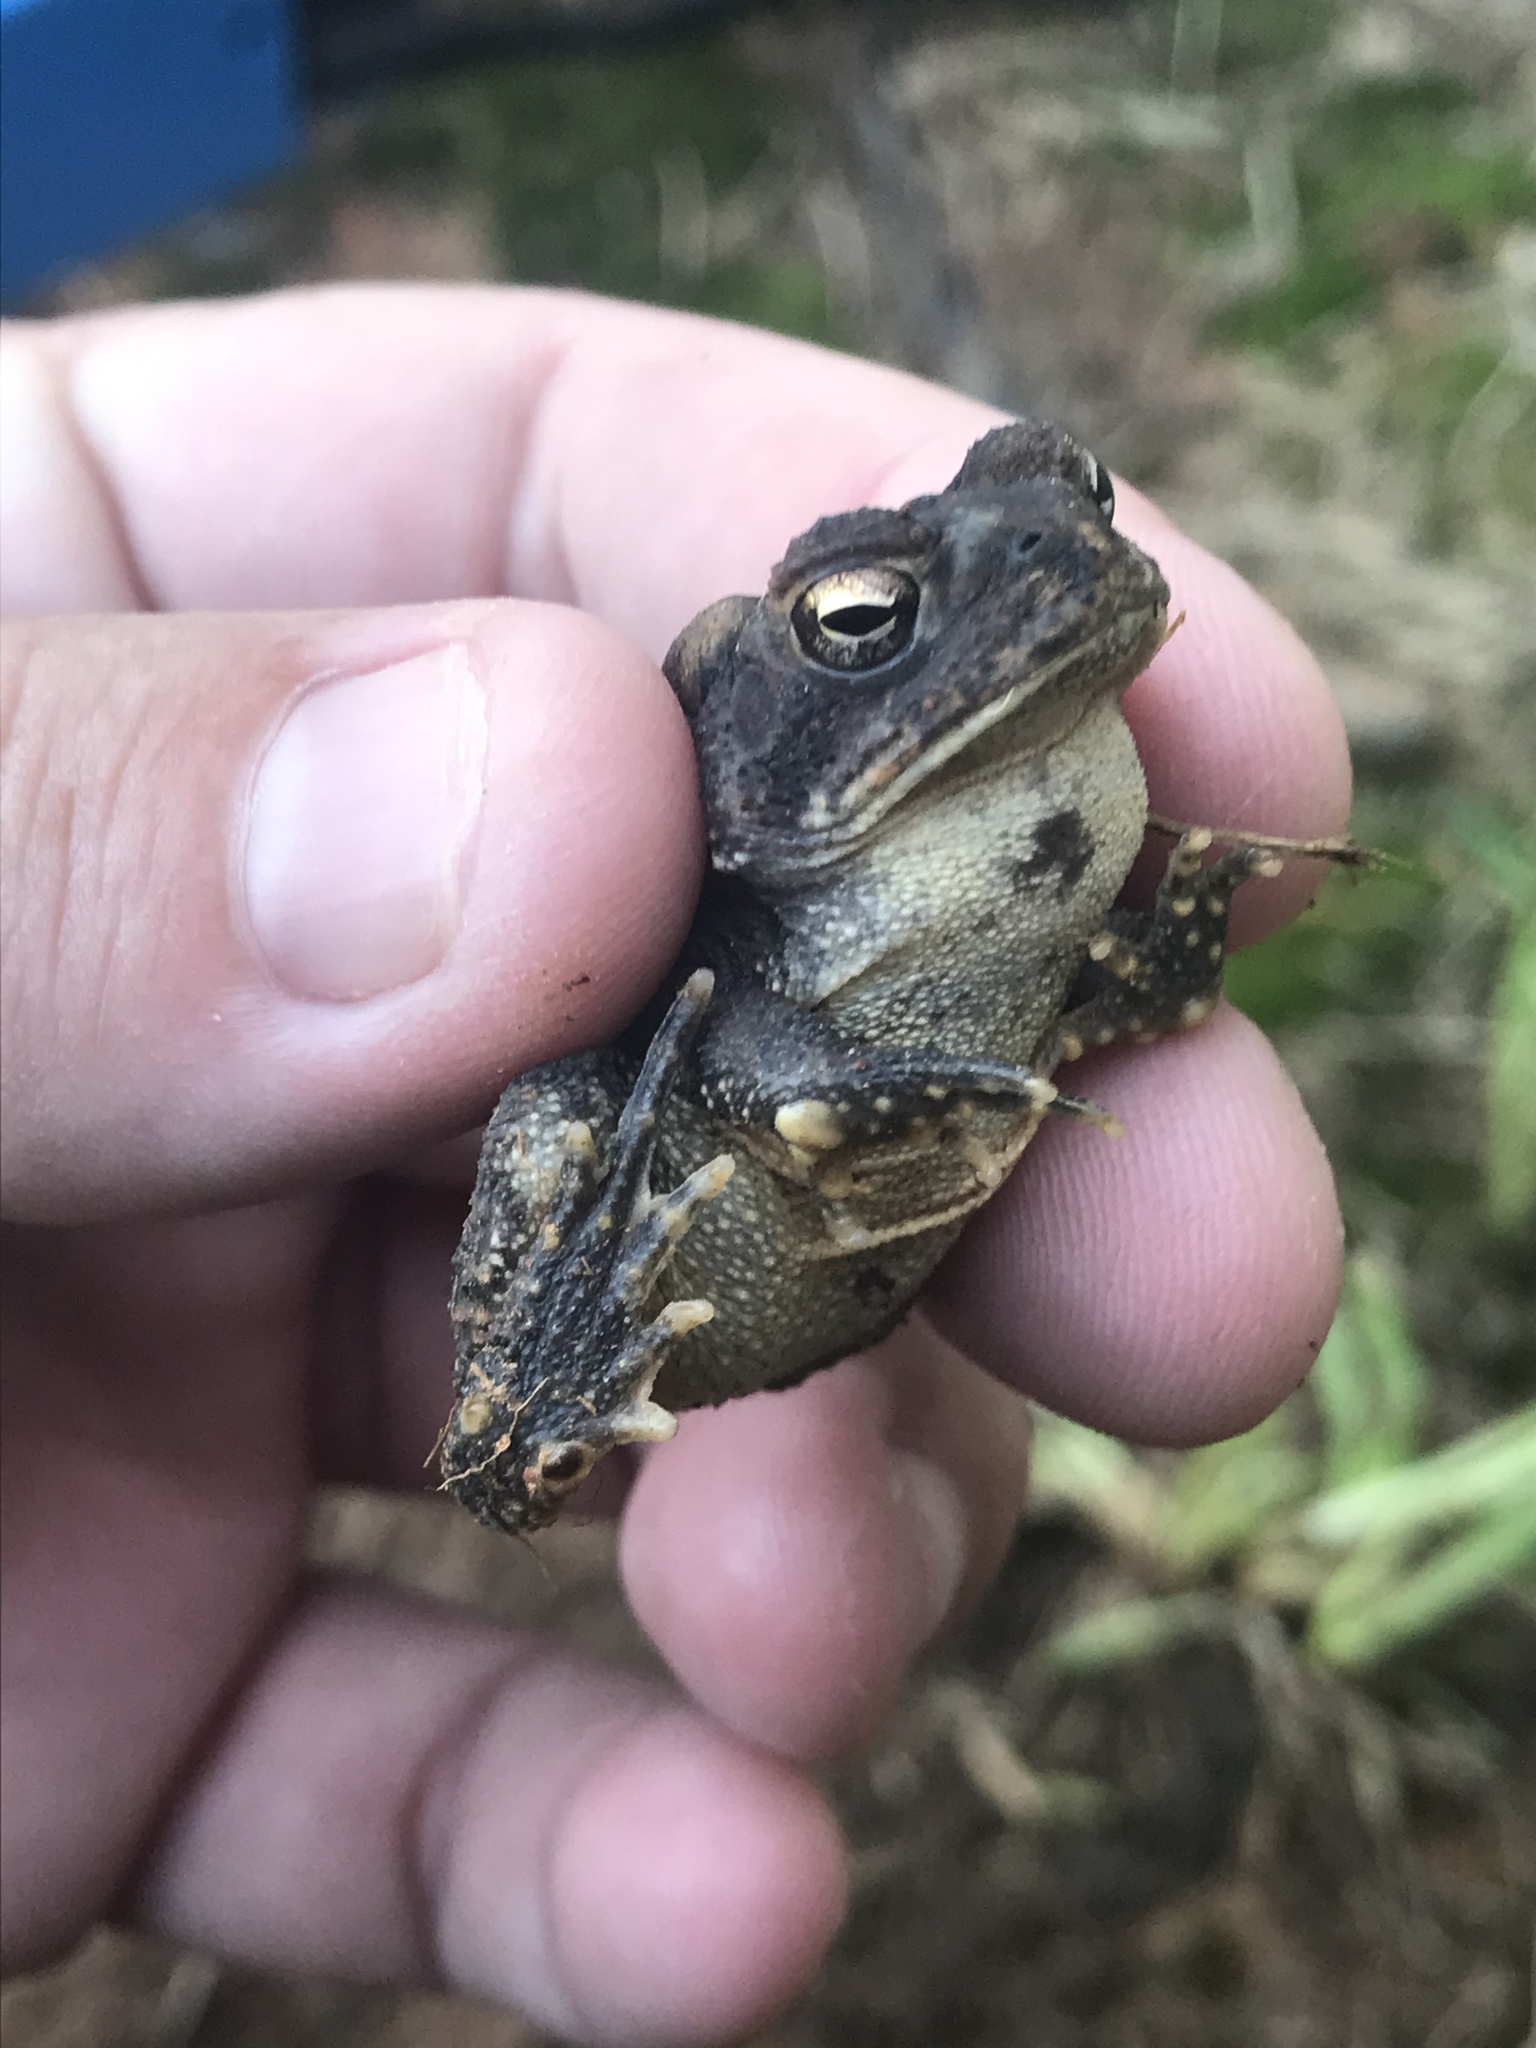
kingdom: Animalia
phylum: Chordata
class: Amphibia
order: Anura
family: Bufonidae
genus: Anaxyrus
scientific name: Anaxyrus americanus
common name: American toad
